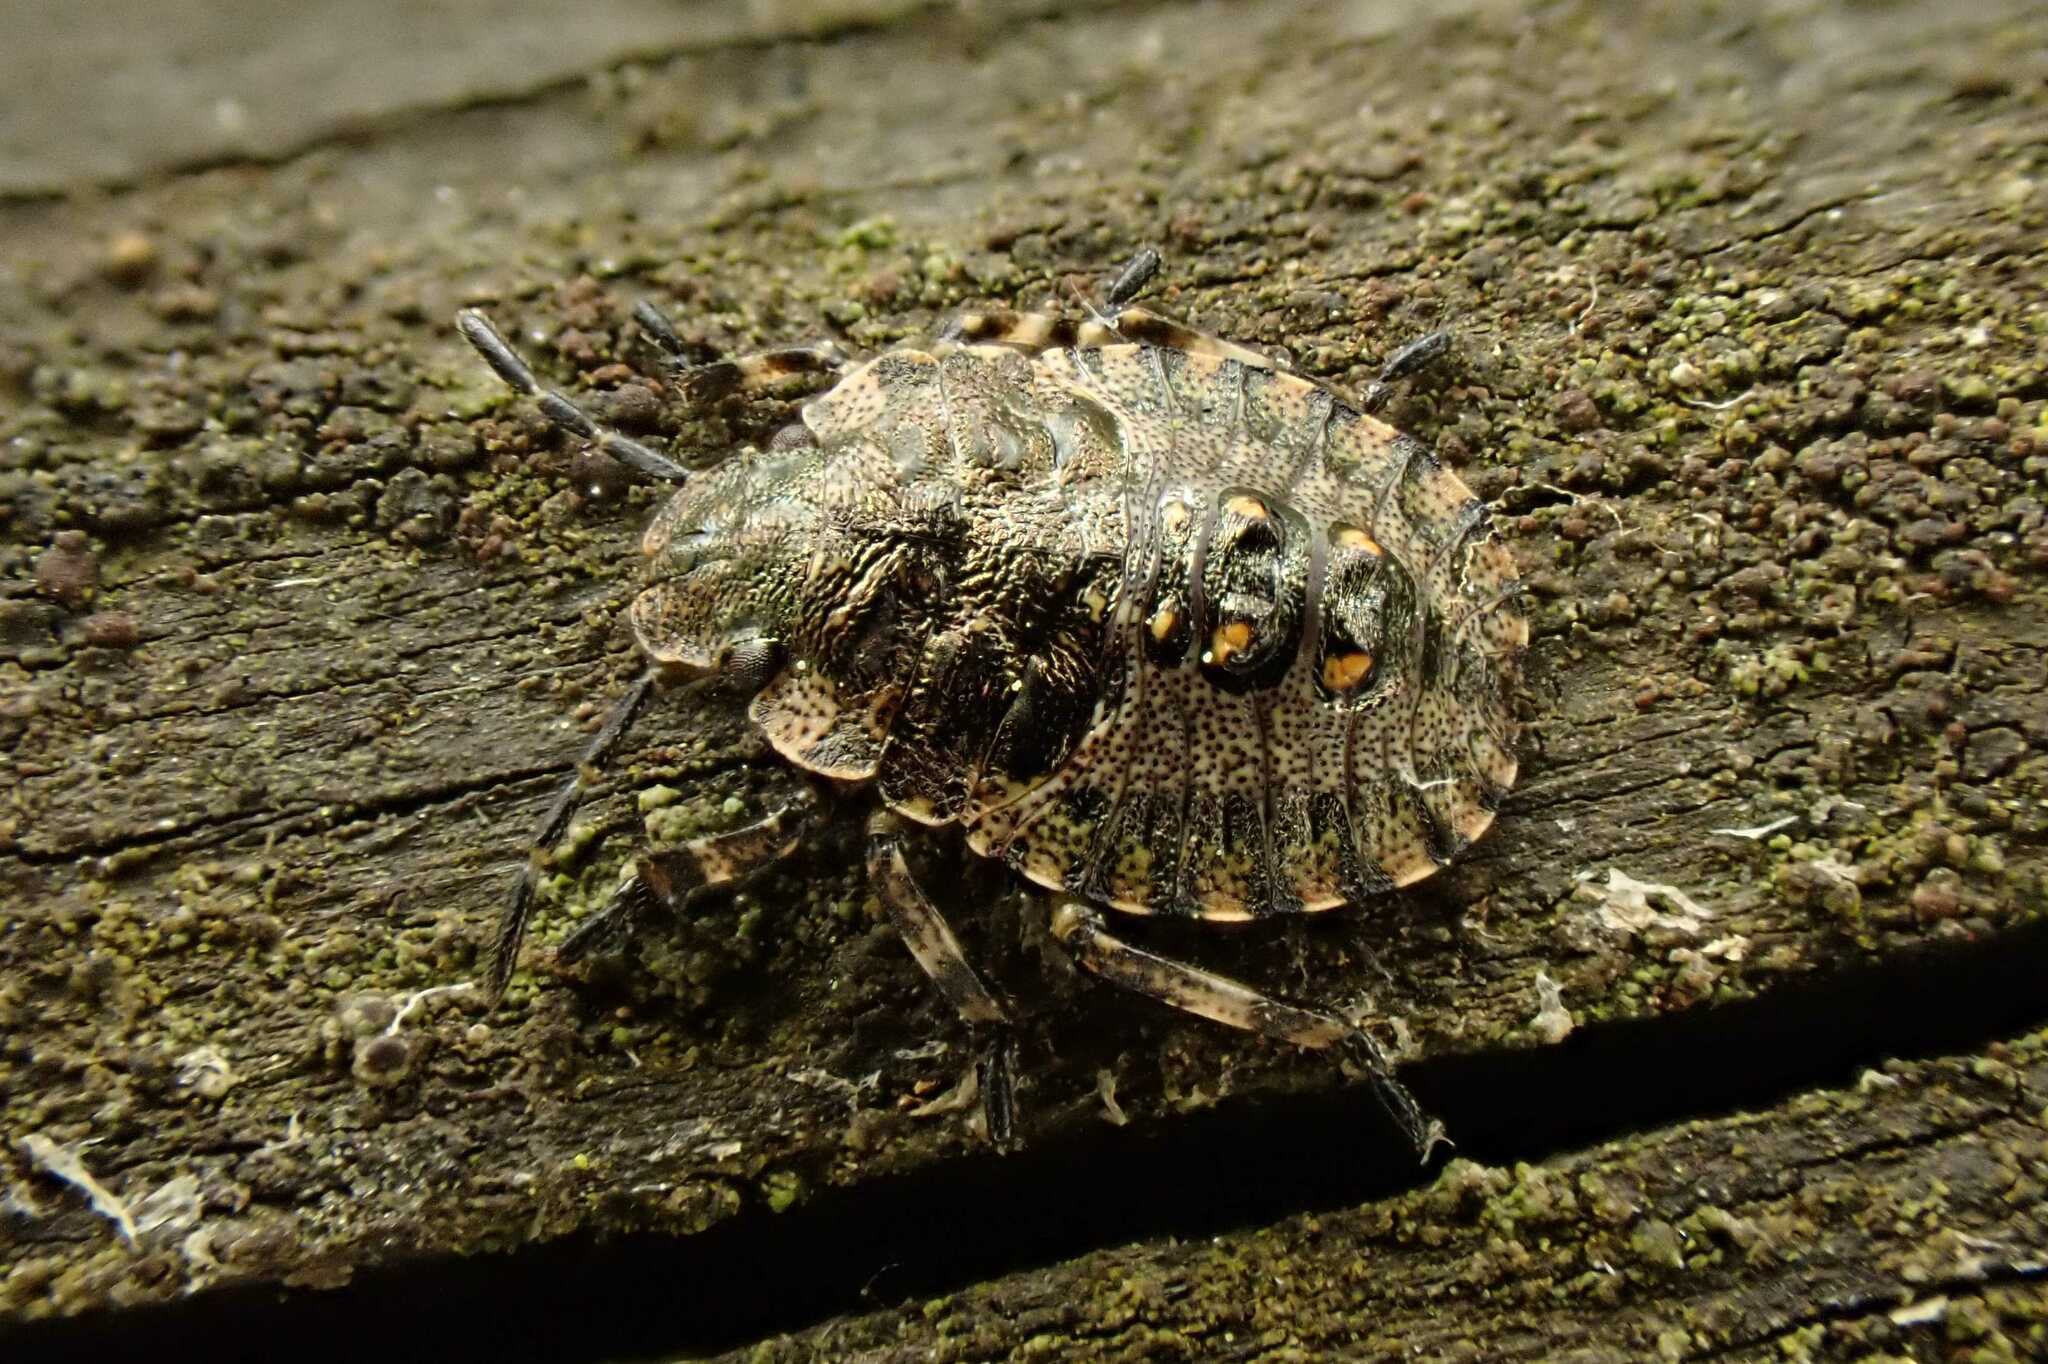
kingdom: Animalia
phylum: Arthropoda
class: Insecta
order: Hemiptera
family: Pentatomidae
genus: Pentatoma
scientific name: Pentatoma rufipes
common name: Forest bug
